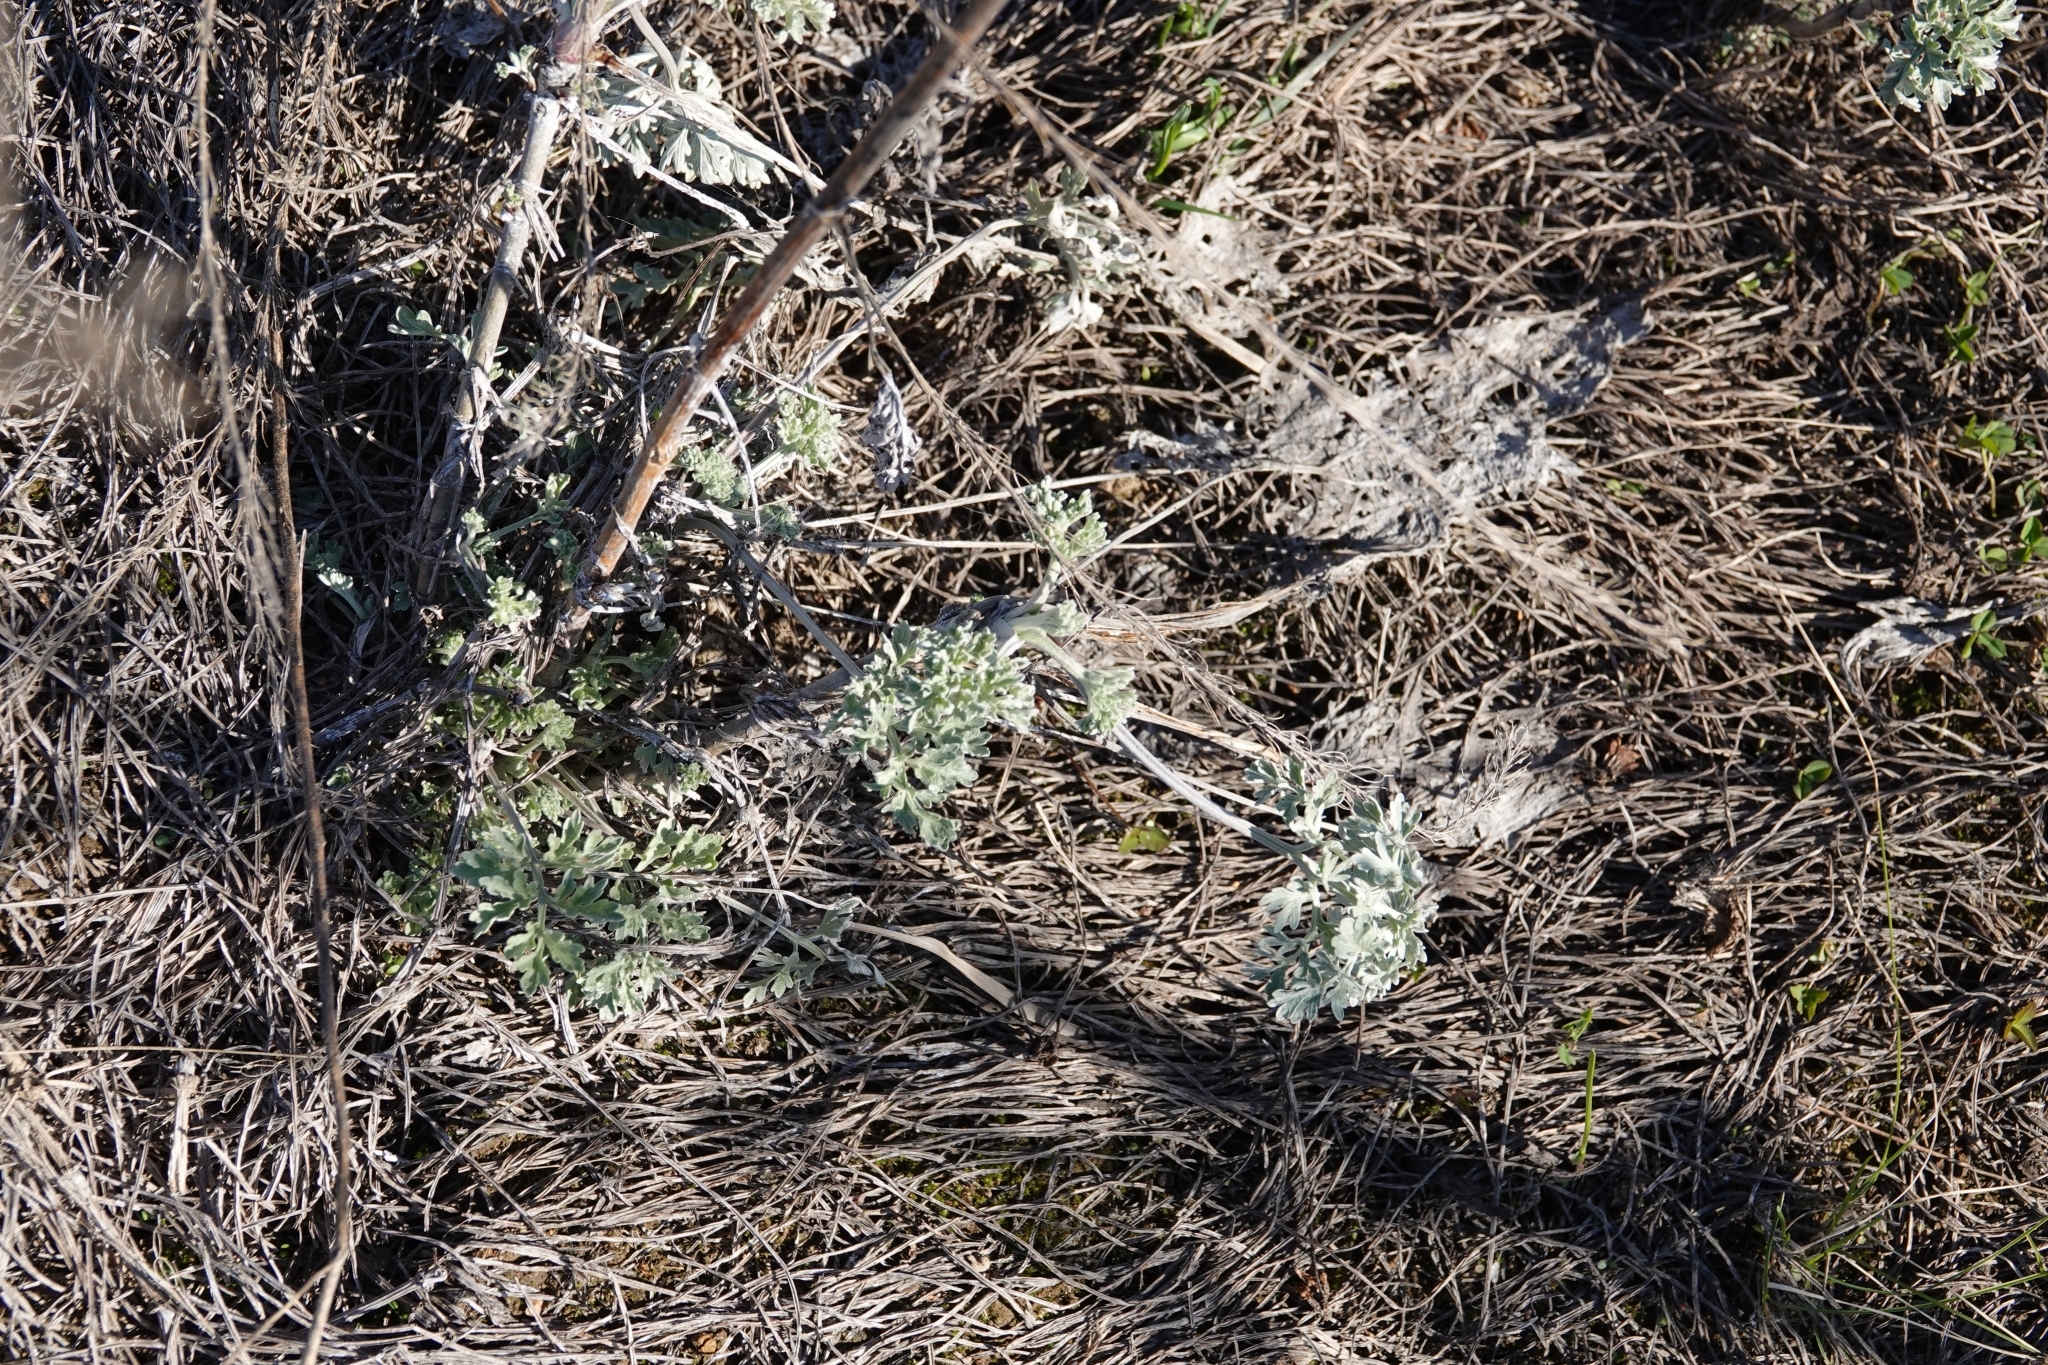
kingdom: Plantae
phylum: Tracheophyta
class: Magnoliopsida
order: Asterales
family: Asteraceae
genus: Artemisia
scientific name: Artemisia absinthium
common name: Wormwood
